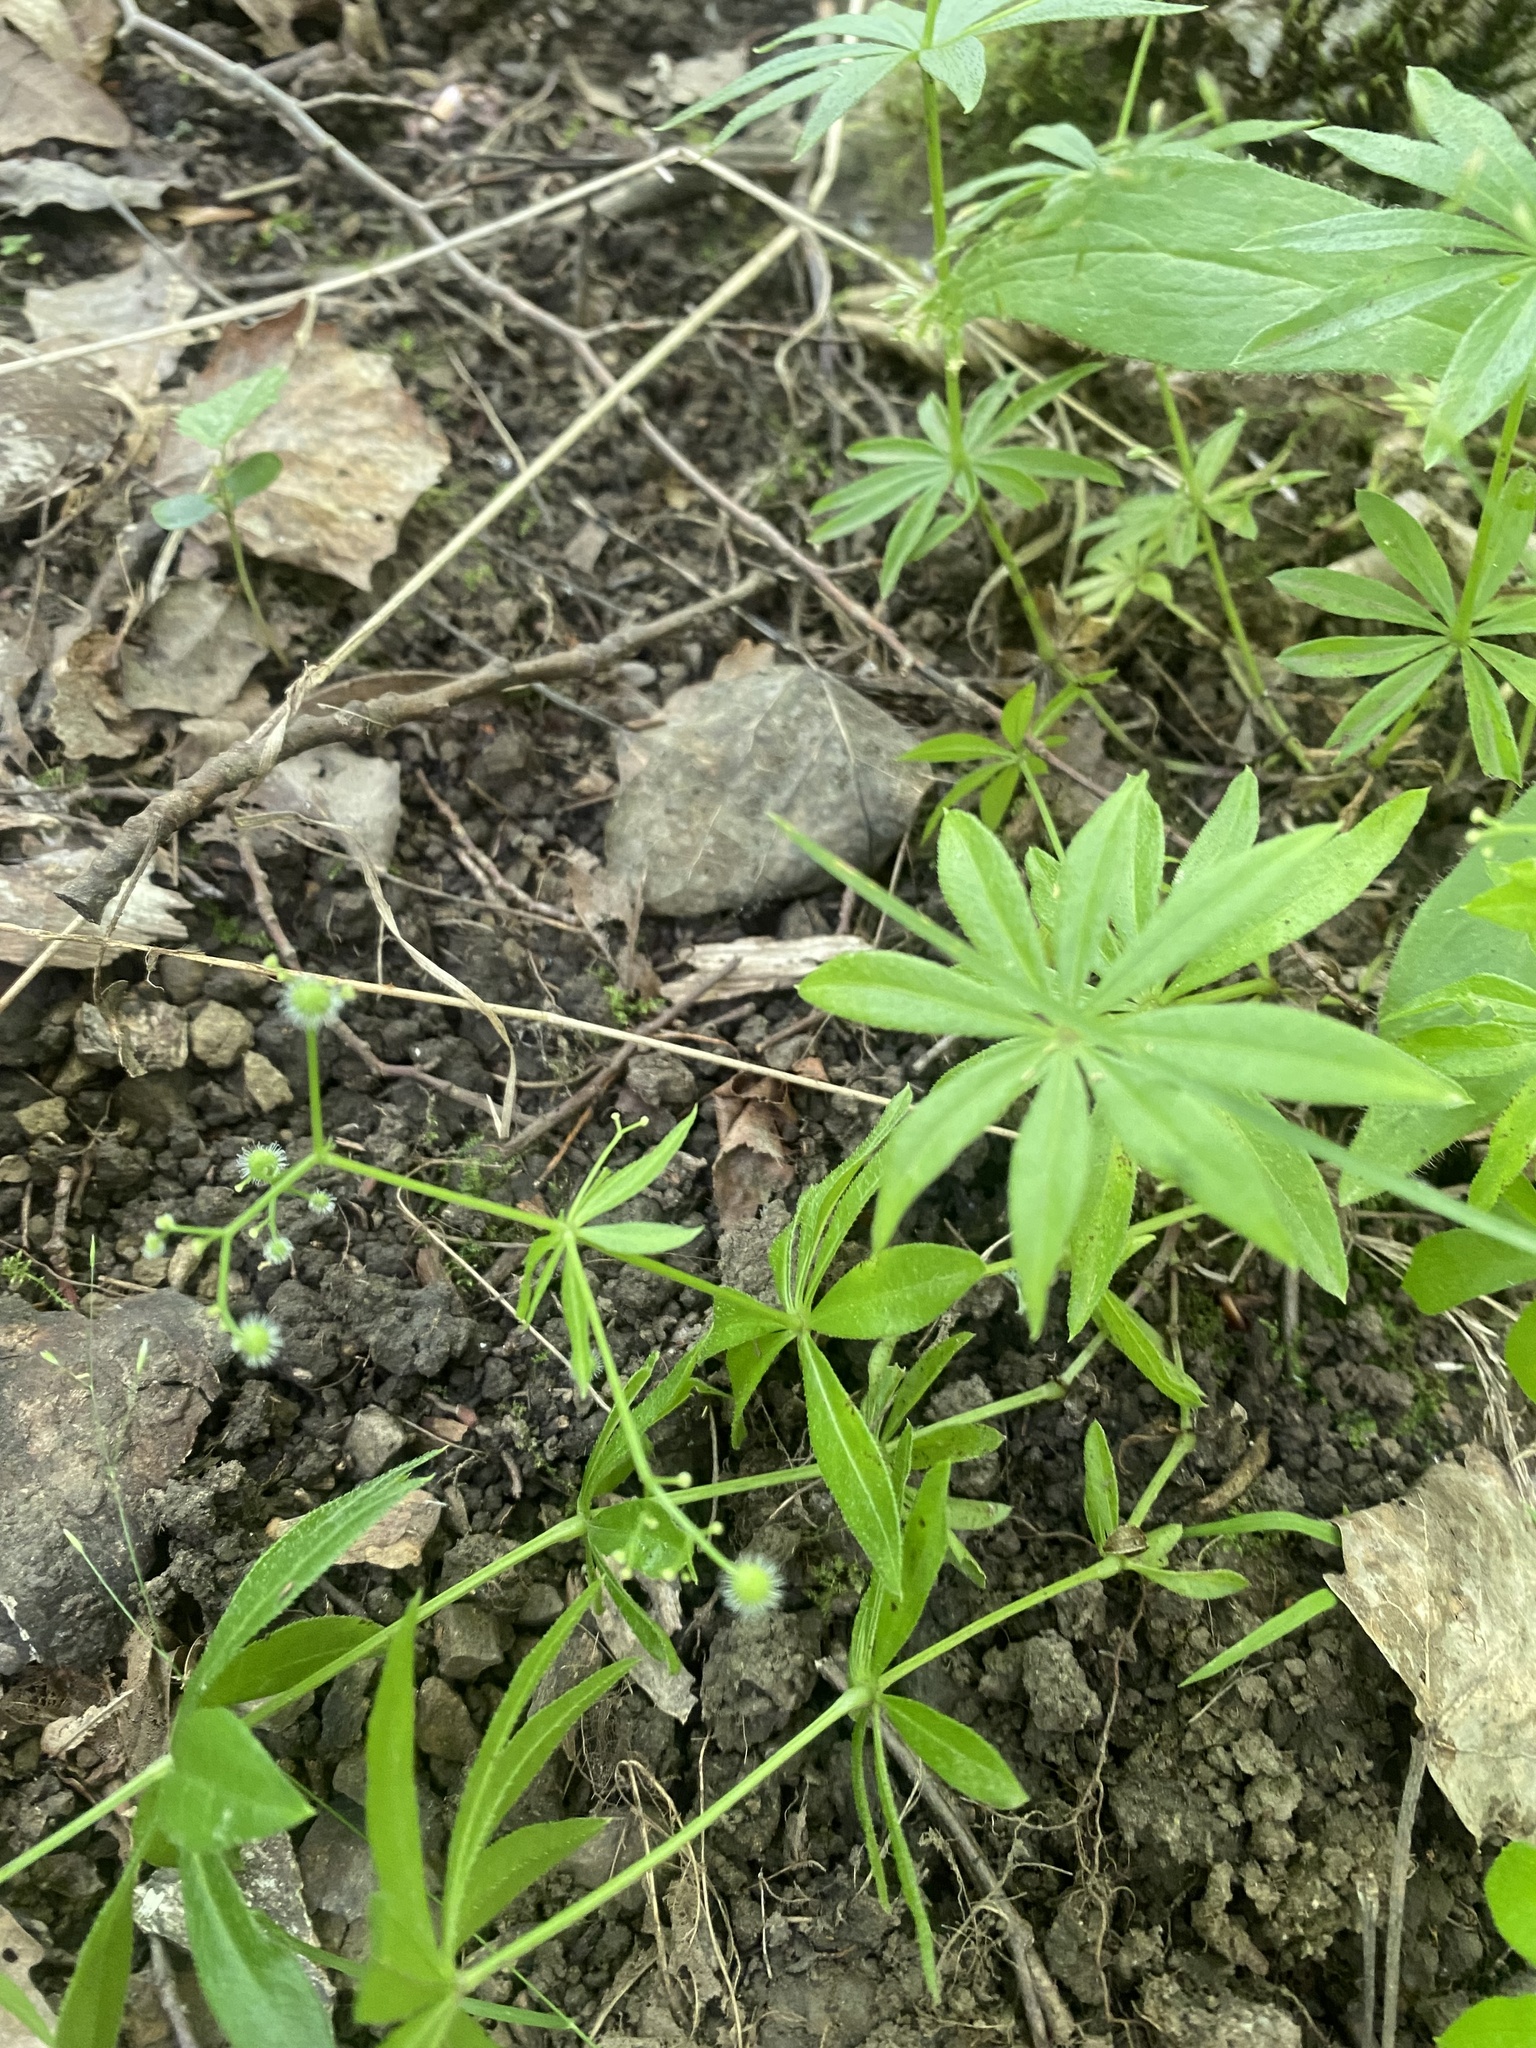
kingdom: Plantae
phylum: Tracheophyta
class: Magnoliopsida
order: Gentianales
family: Rubiaceae
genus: Galium
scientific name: Galium odoratum
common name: Sweet woodruff
